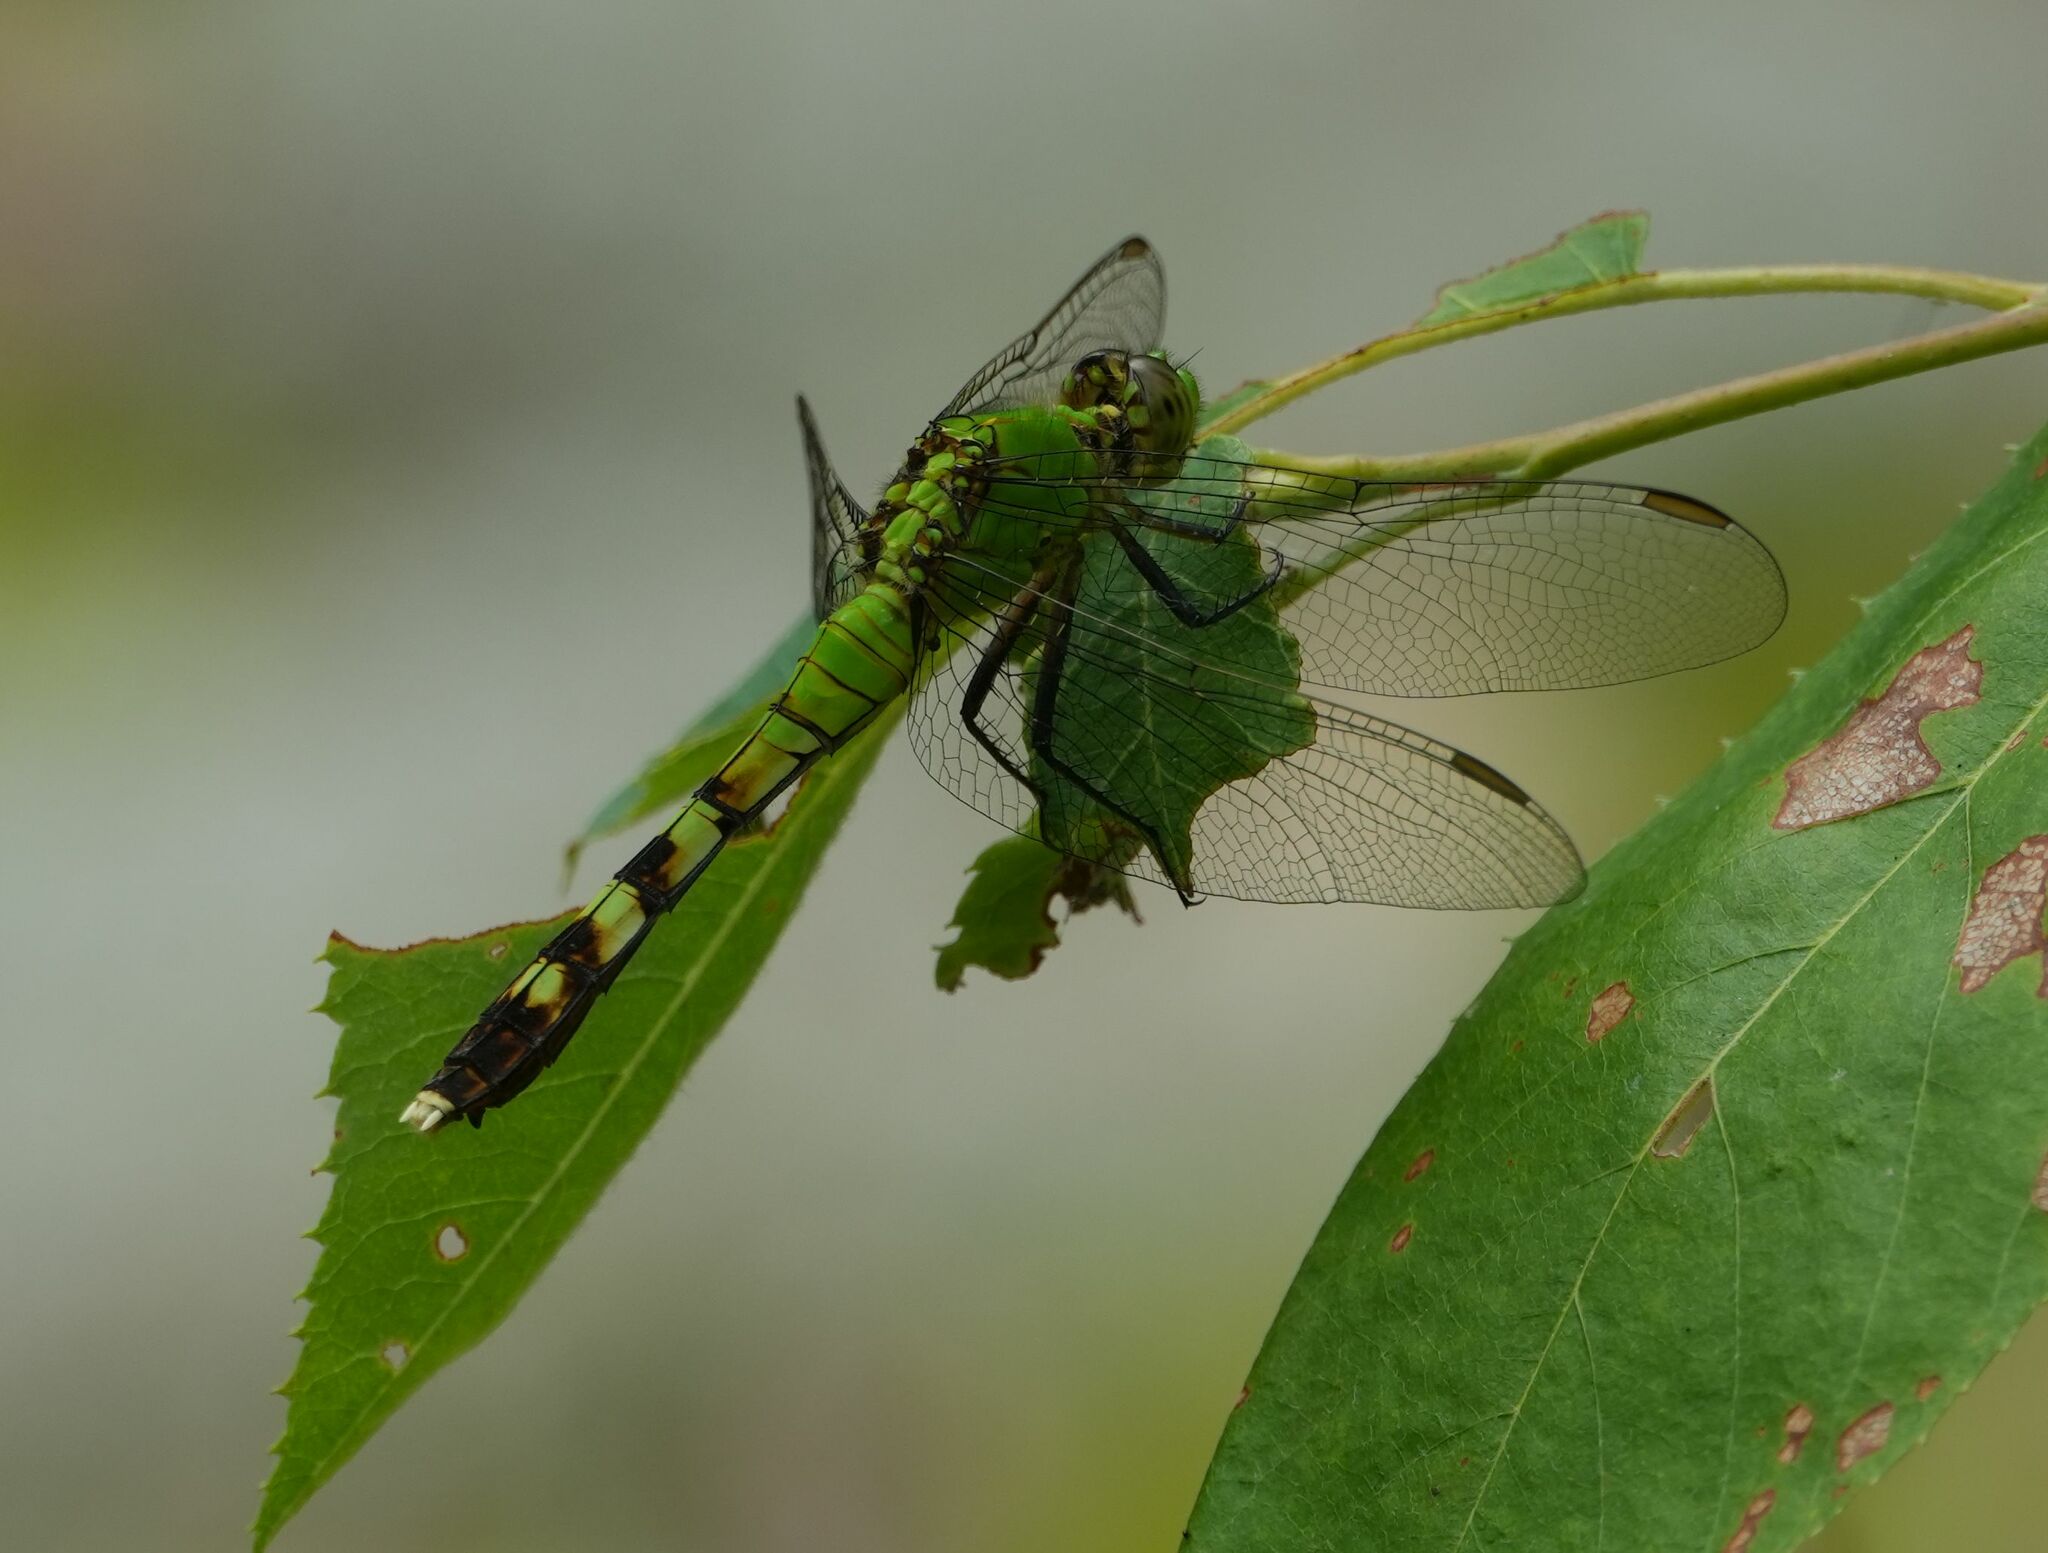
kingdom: Animalia
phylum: Arthropoda
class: Insecta
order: Odonata
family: Libellulidae
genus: Erythemis
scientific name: Erythemis simplicicollis
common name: Eastern pondhawk
